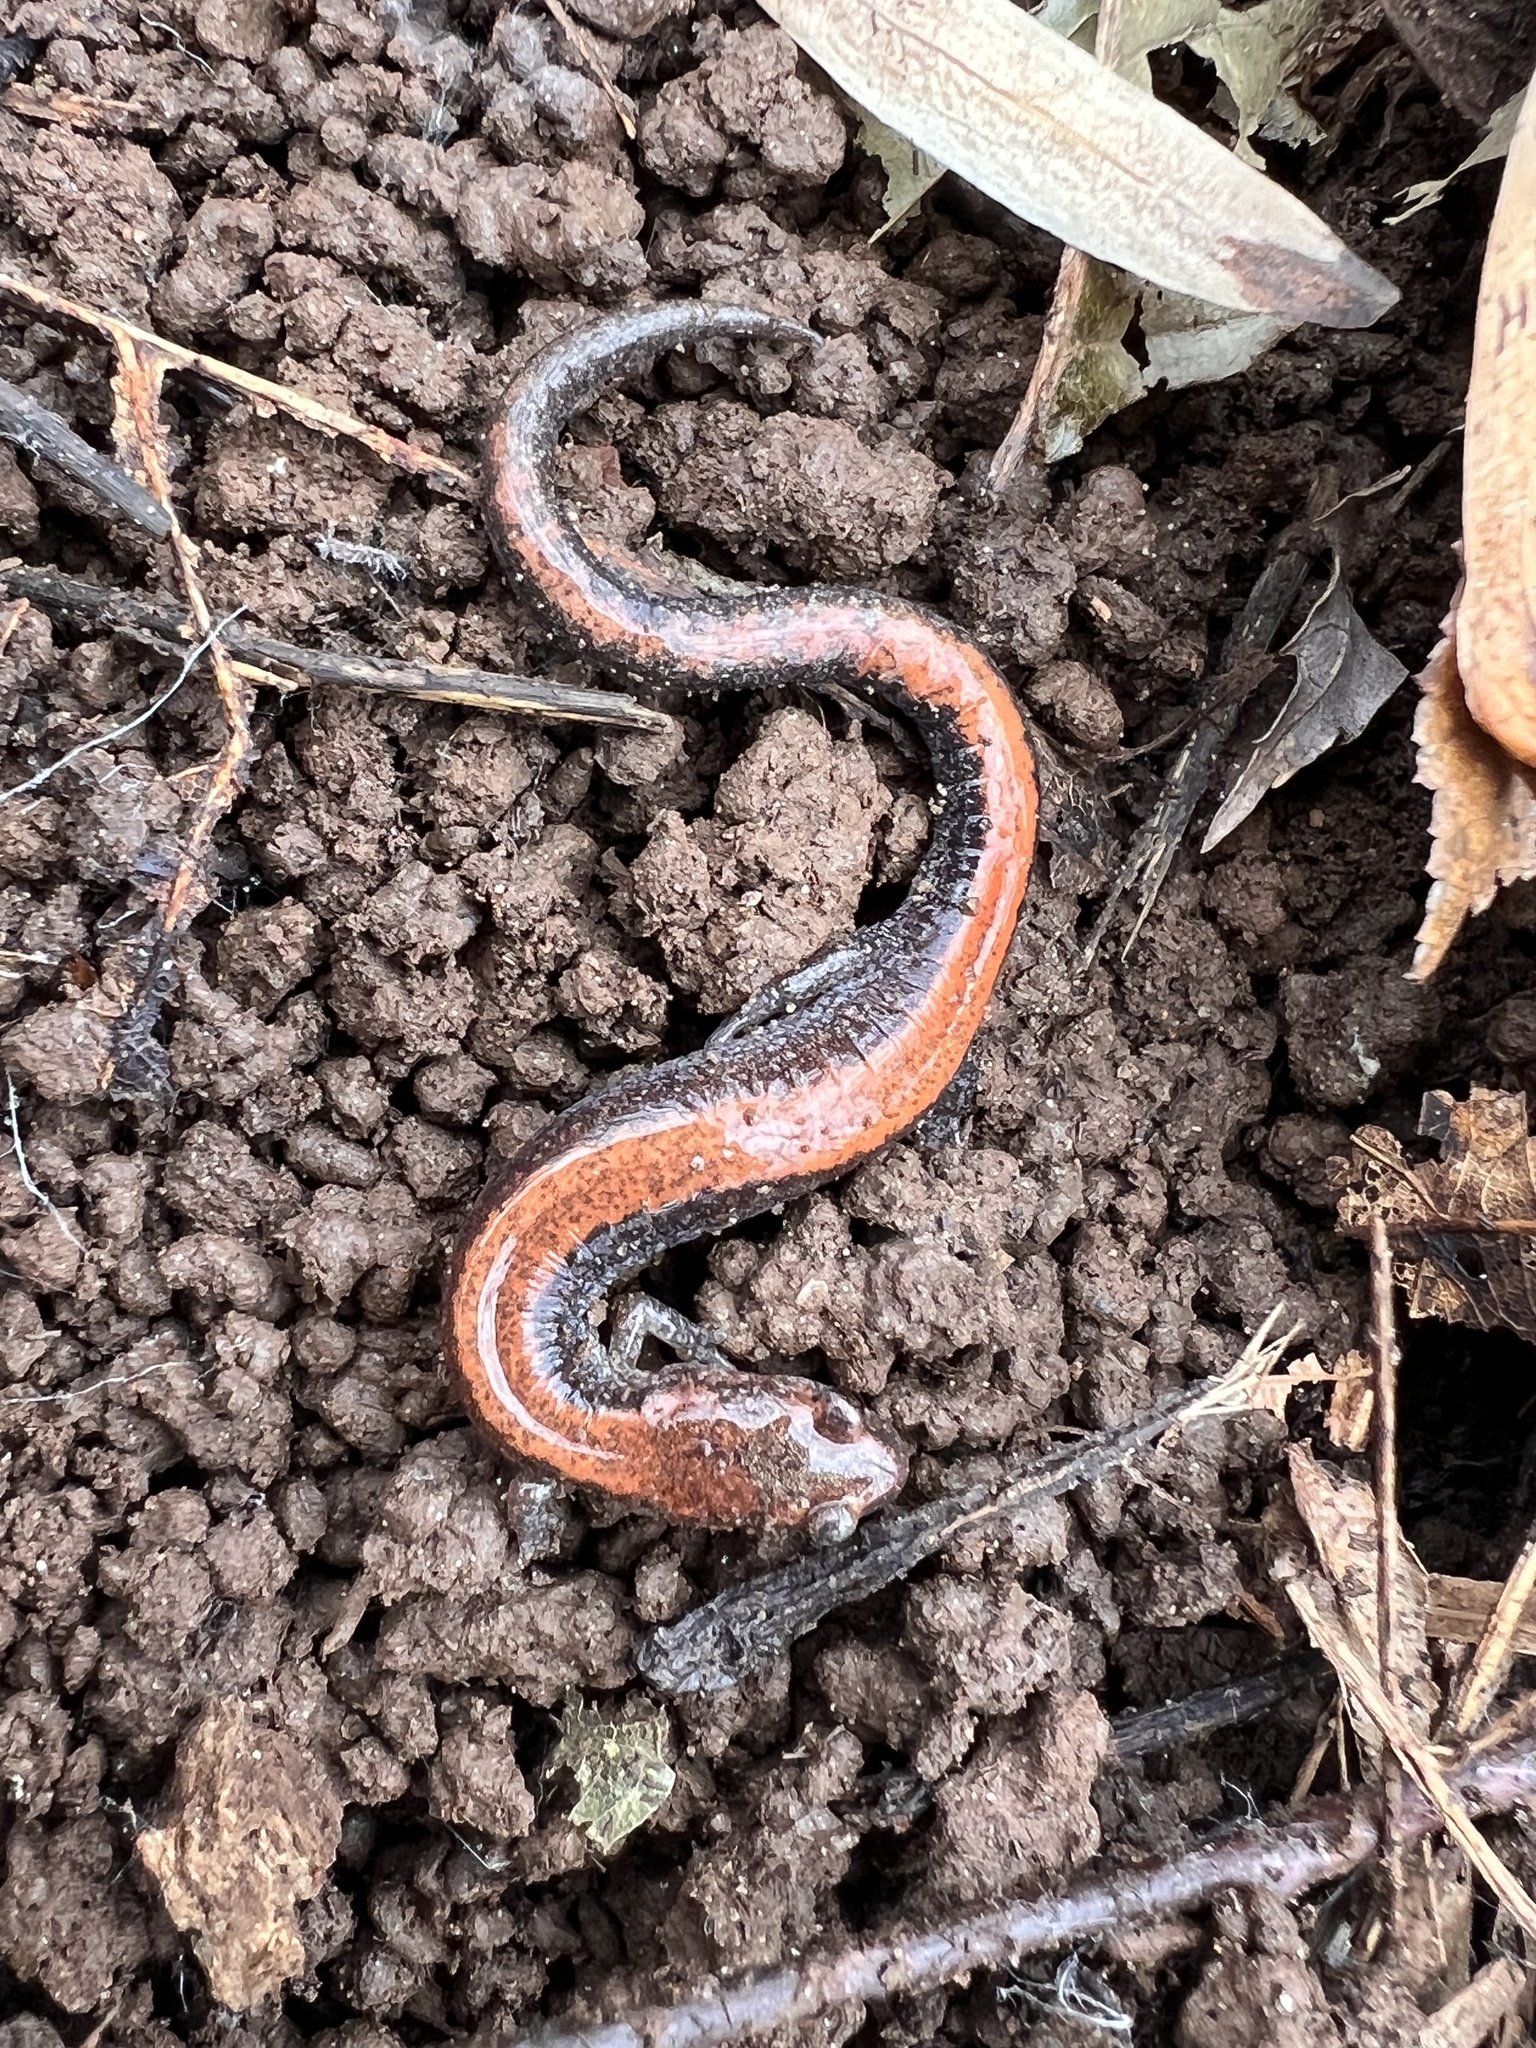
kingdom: Animalia
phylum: Chordata
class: Amphibia
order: Caudata
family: Plethodontidae
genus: Plethodon
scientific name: Plethodon cinereus
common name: Redback salamander
